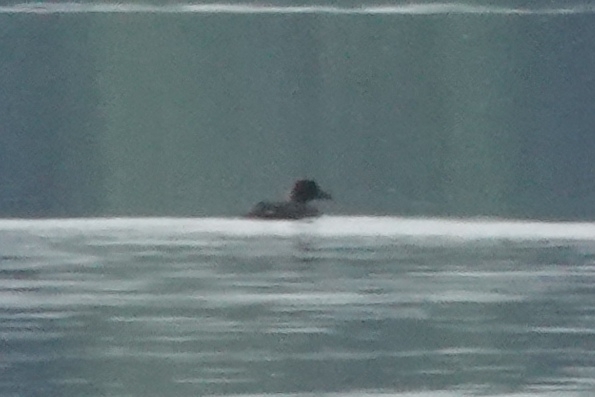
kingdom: Animalia
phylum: Chordata
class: Aves
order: Anseriformes
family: Anatidae
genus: Bucephala
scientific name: Bucephala clangula
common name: Common goldeneye
